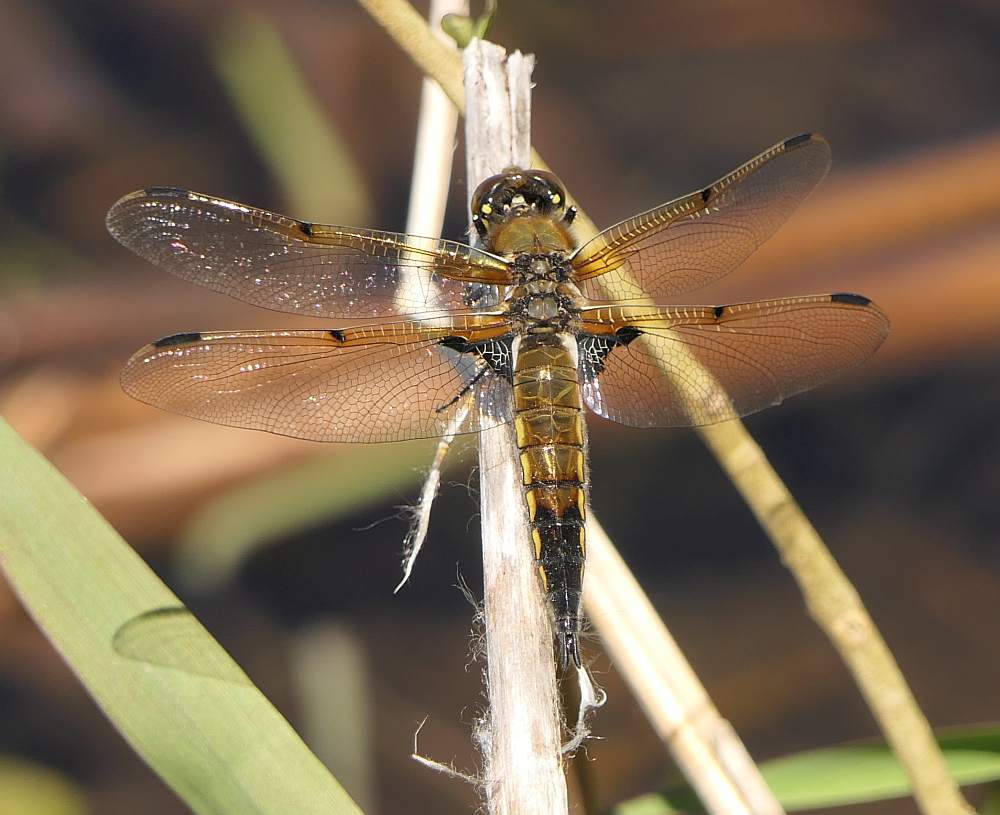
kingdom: Animalia
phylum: Arthropoda
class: Insecta
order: Odonata
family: Libellulidae
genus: Libellula
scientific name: Libellula quadrimaculata
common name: Four-spotted chaser
